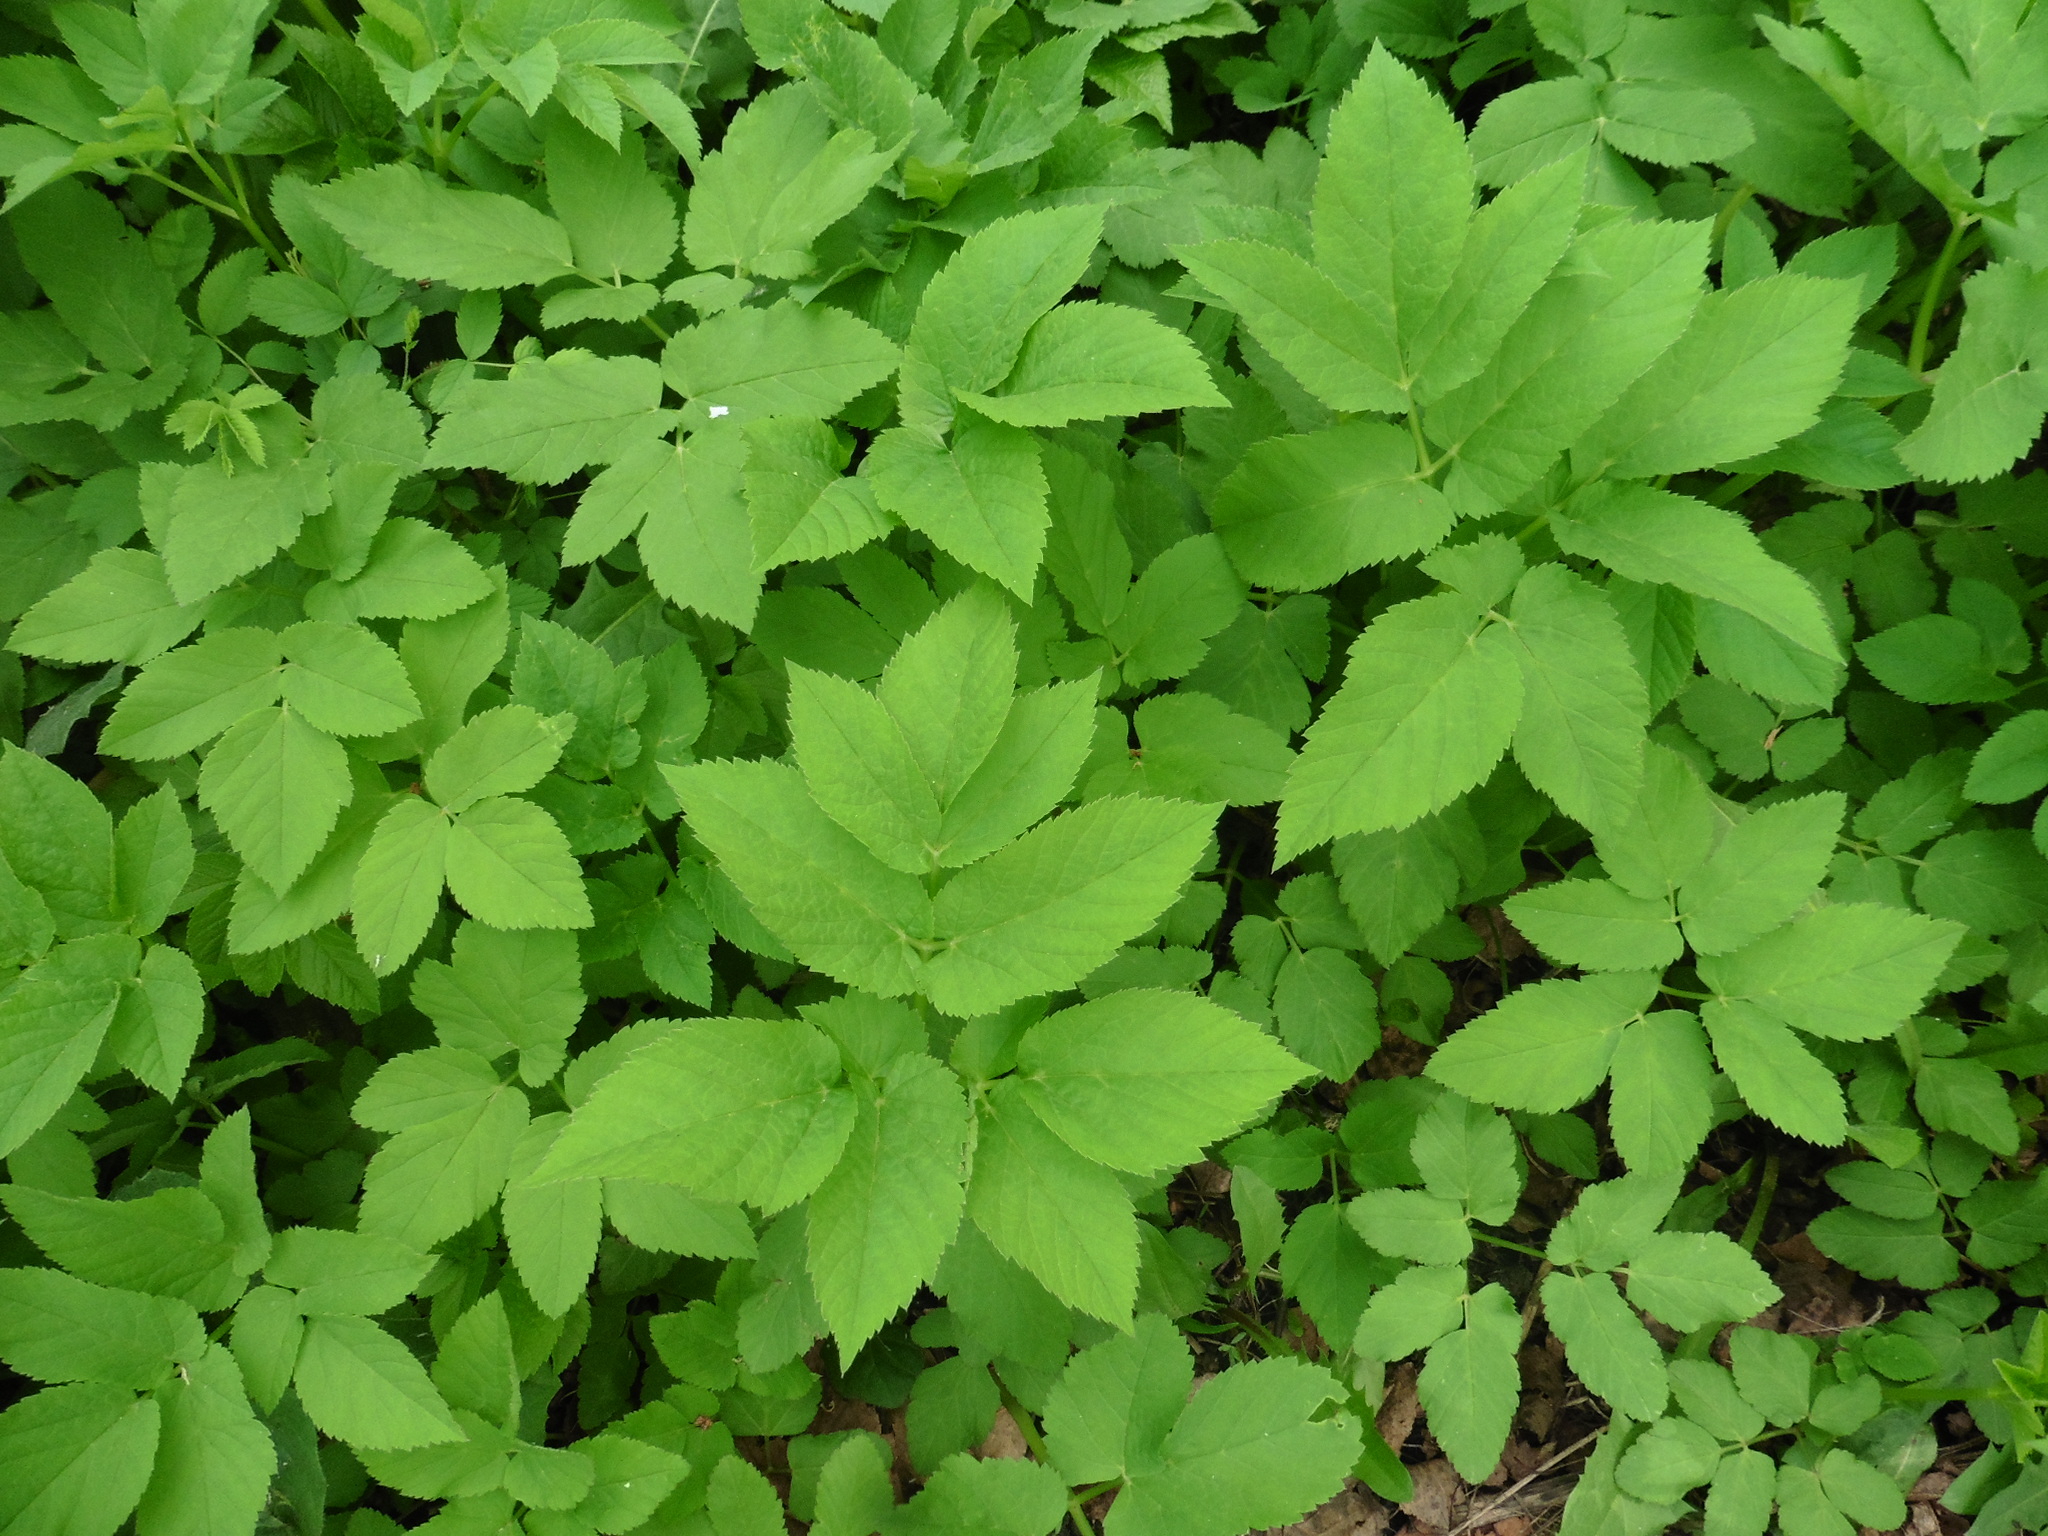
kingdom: Plantae
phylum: Tracheophyta
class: Magnoliopsida
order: Apiales
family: Apiaceae
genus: Aegopodium
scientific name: Aegopodium podagraria
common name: Ground-elder
